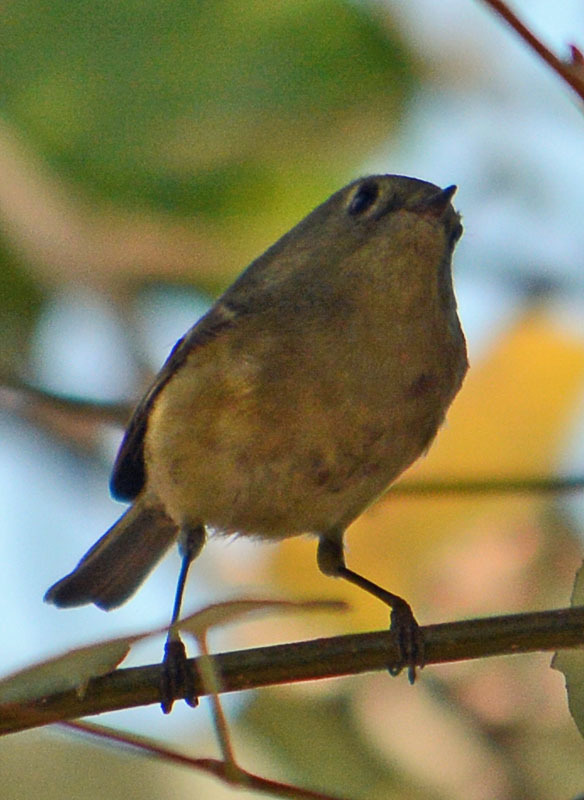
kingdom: Animalia
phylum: Chordata
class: Aves
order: Passeriformes
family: Regulidae
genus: Regulus
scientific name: Regulus calendula
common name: Ruby-crowned kinglet
